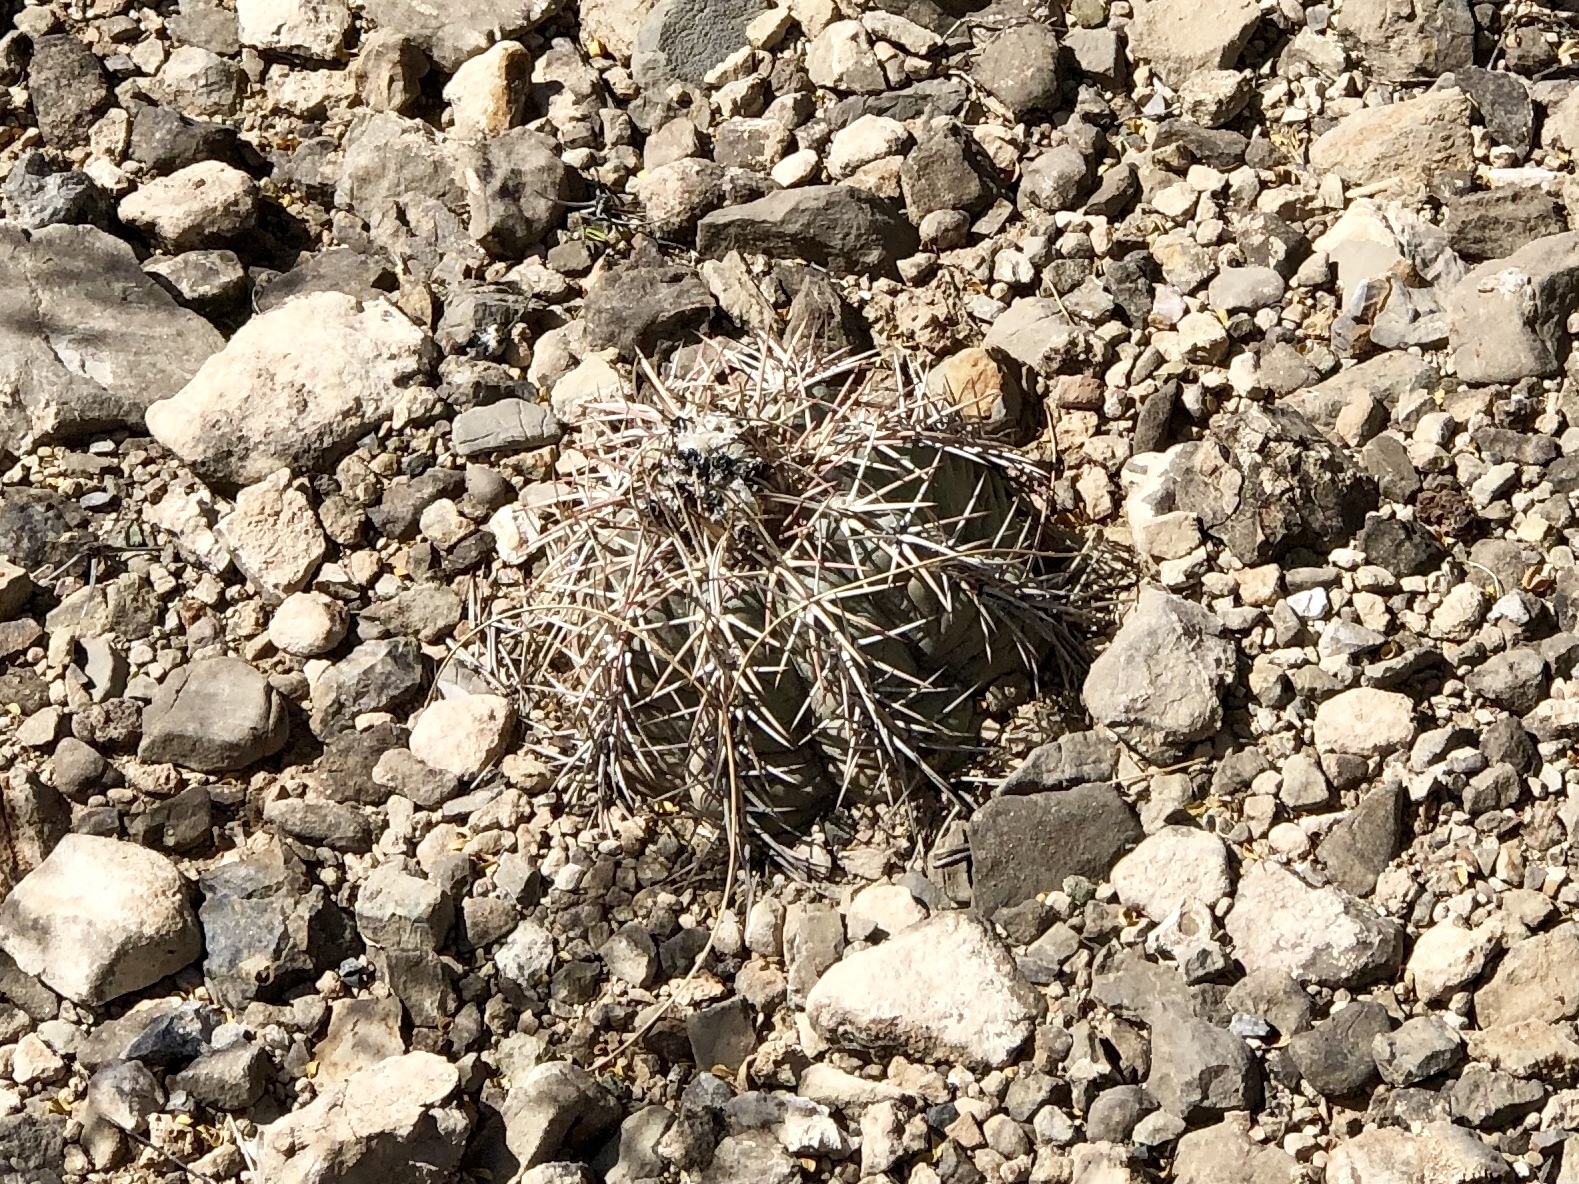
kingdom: Plantae
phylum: Tracheophyta
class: Magnoliopsida
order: Caryophyllales
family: Cactaceae
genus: Echinocactus
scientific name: Echinocactus horizonthalonius
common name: Devilshead
